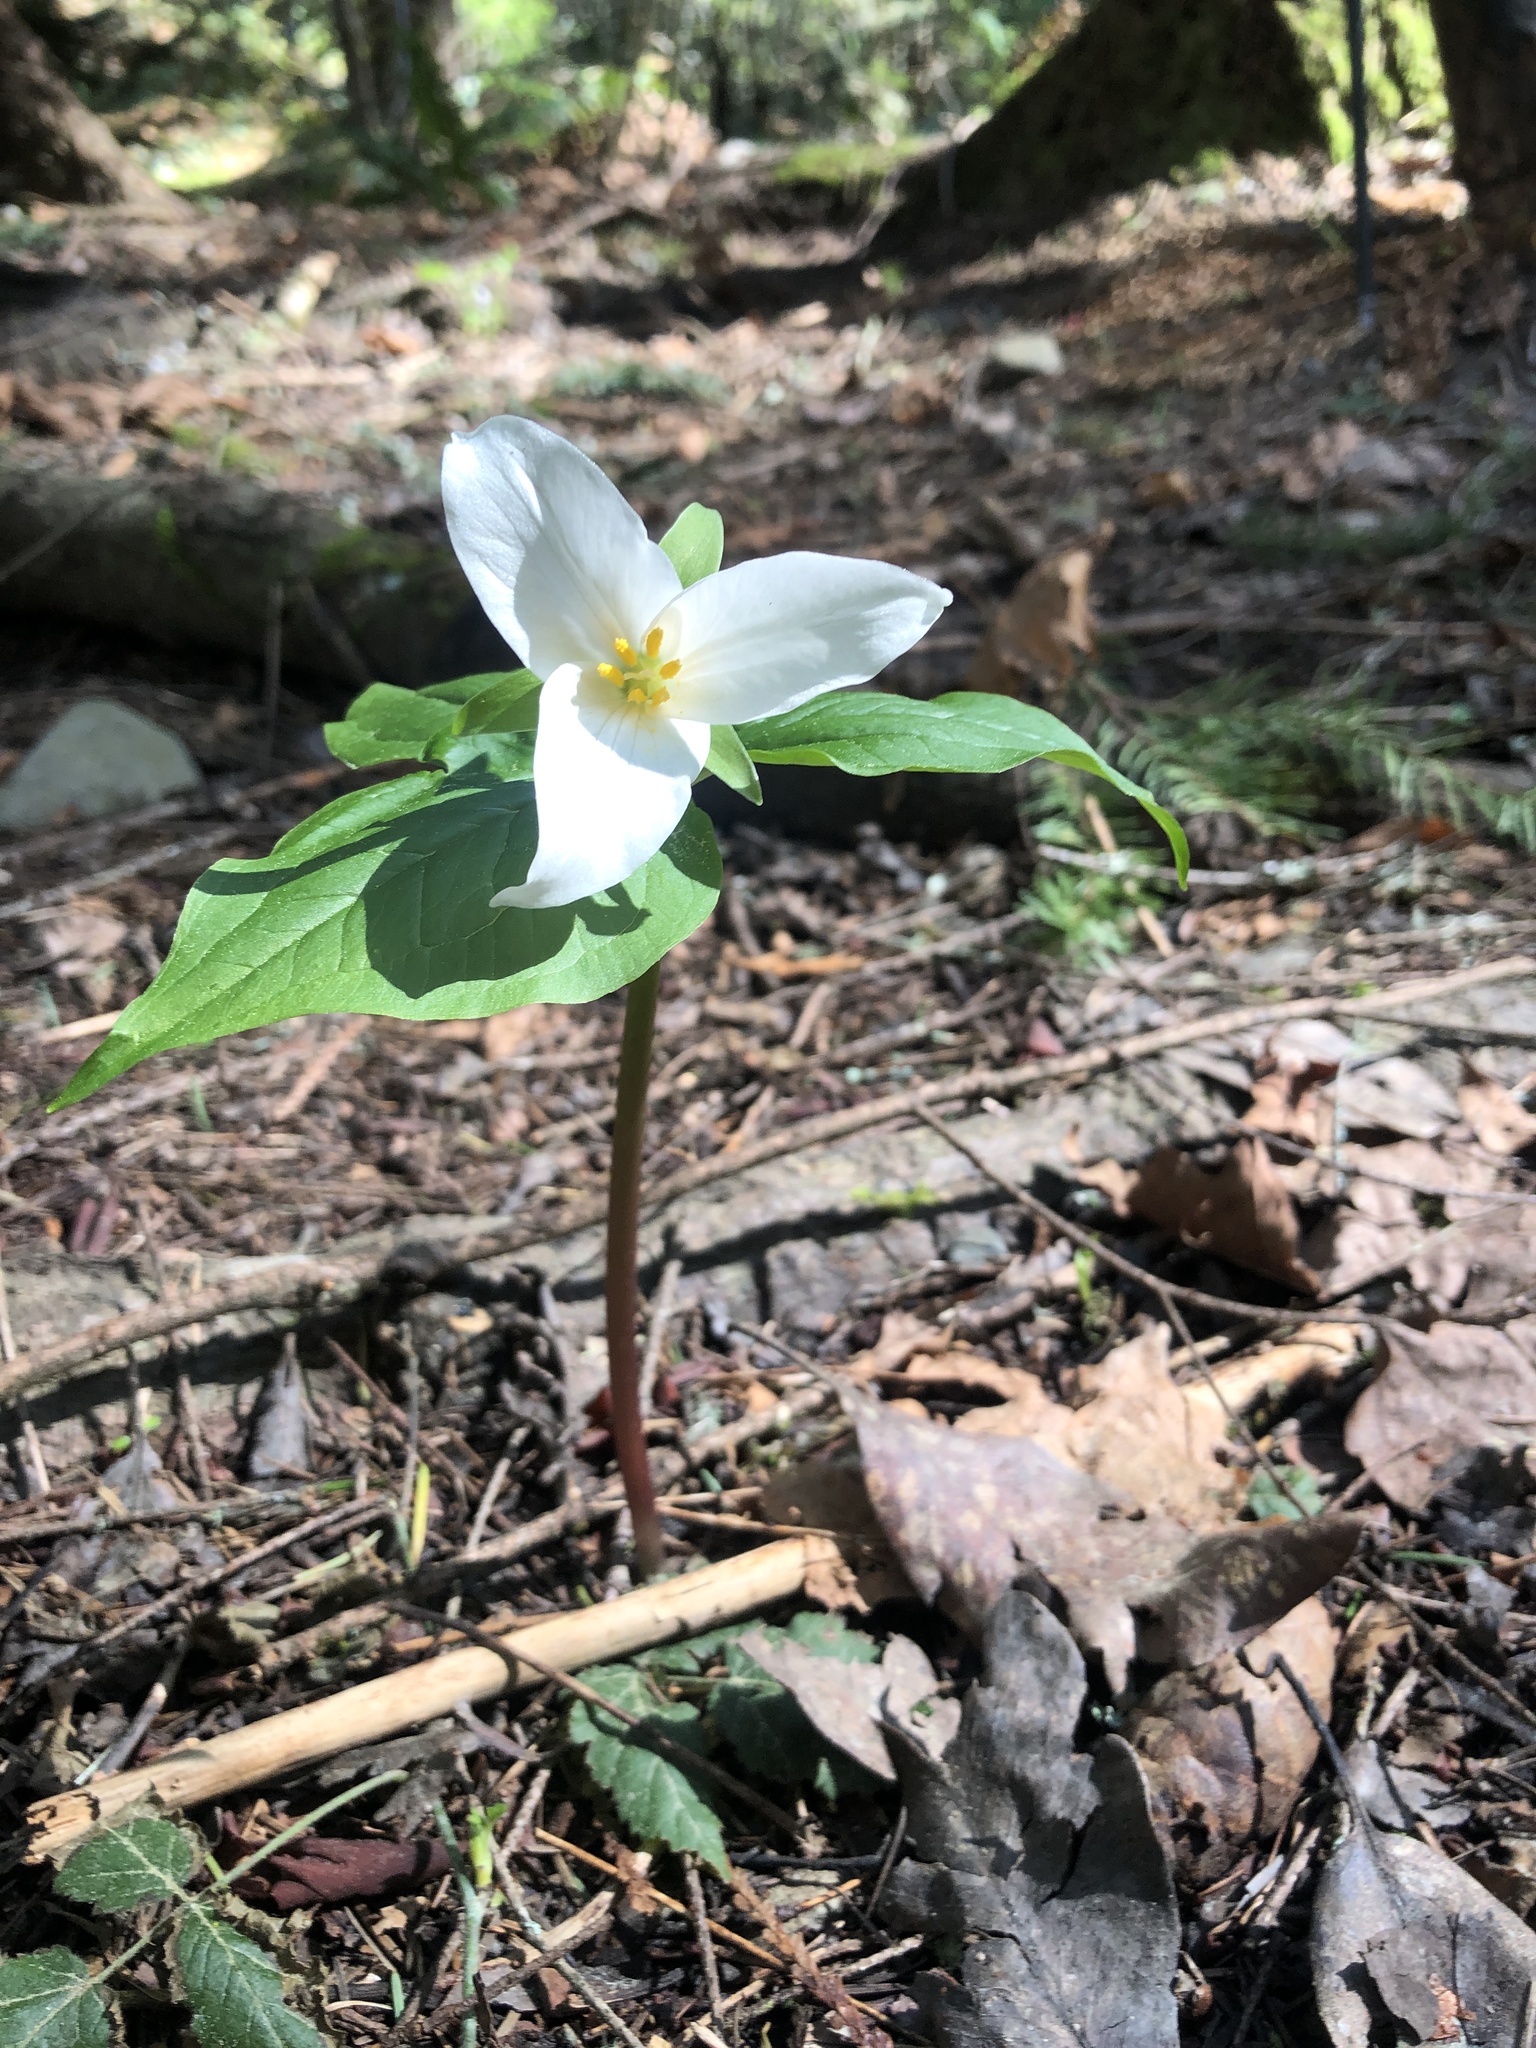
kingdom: Plantae
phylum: Tracheophyta
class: Liliopsida
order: Liliales
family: Melanthiaceae
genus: Trillium
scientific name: Trillium ovatum
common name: Pacific trillium
